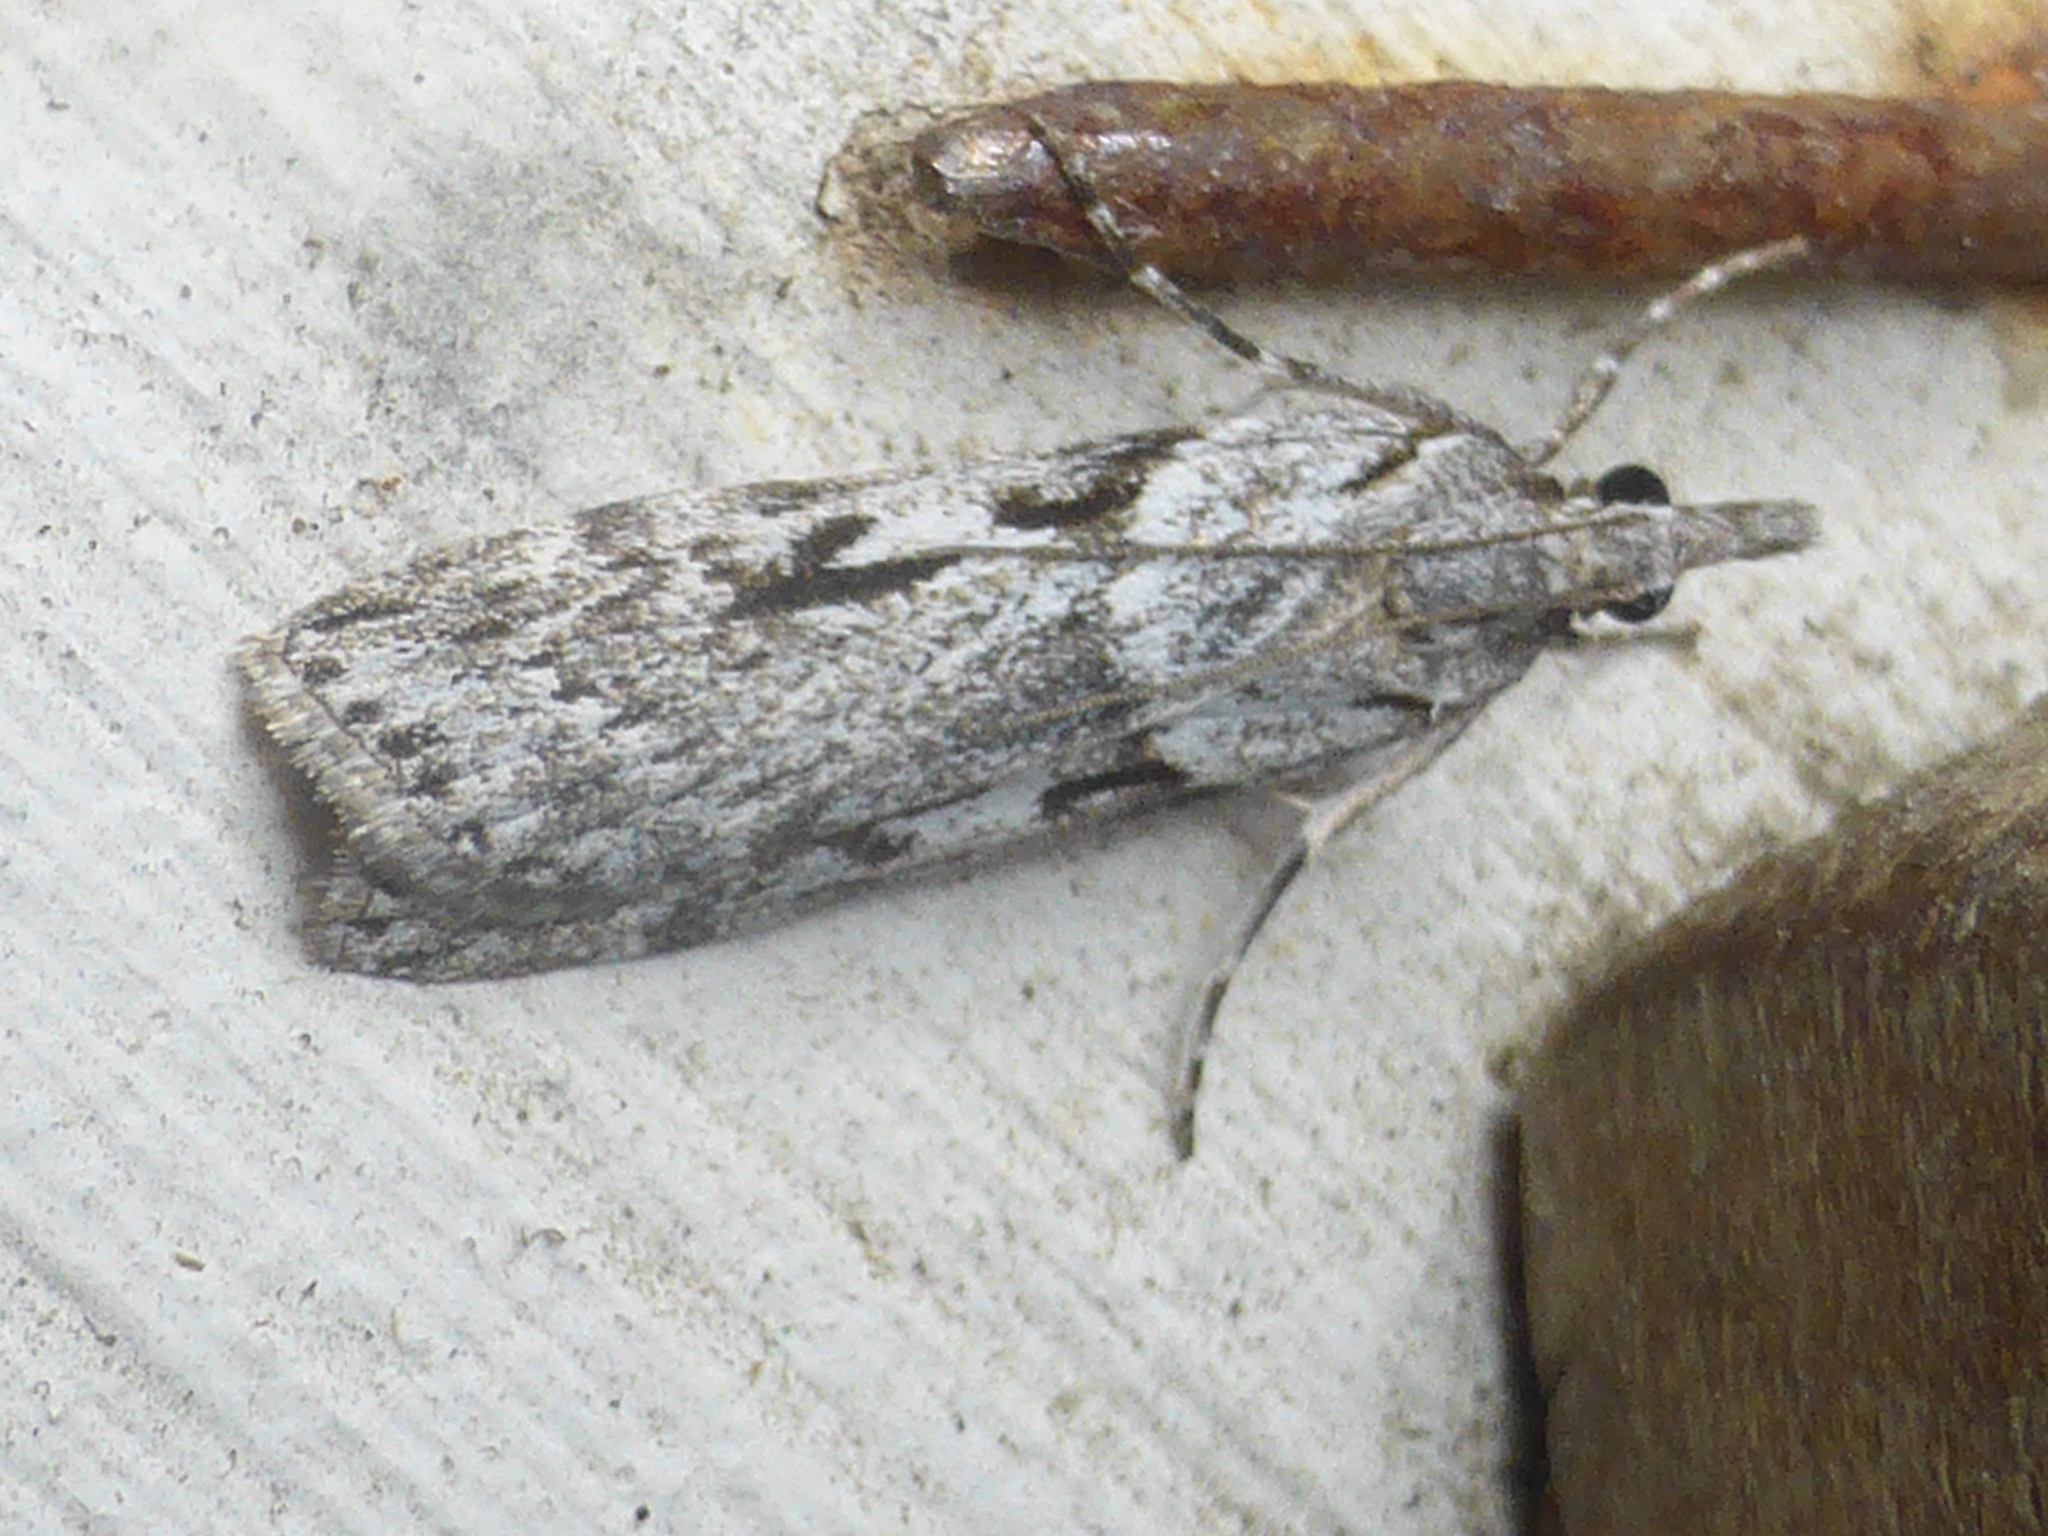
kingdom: Animalia
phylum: Arthropoda
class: Insecta
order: Lepidoptera
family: Crambidae
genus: Scoparia
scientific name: Scoparia halopis
